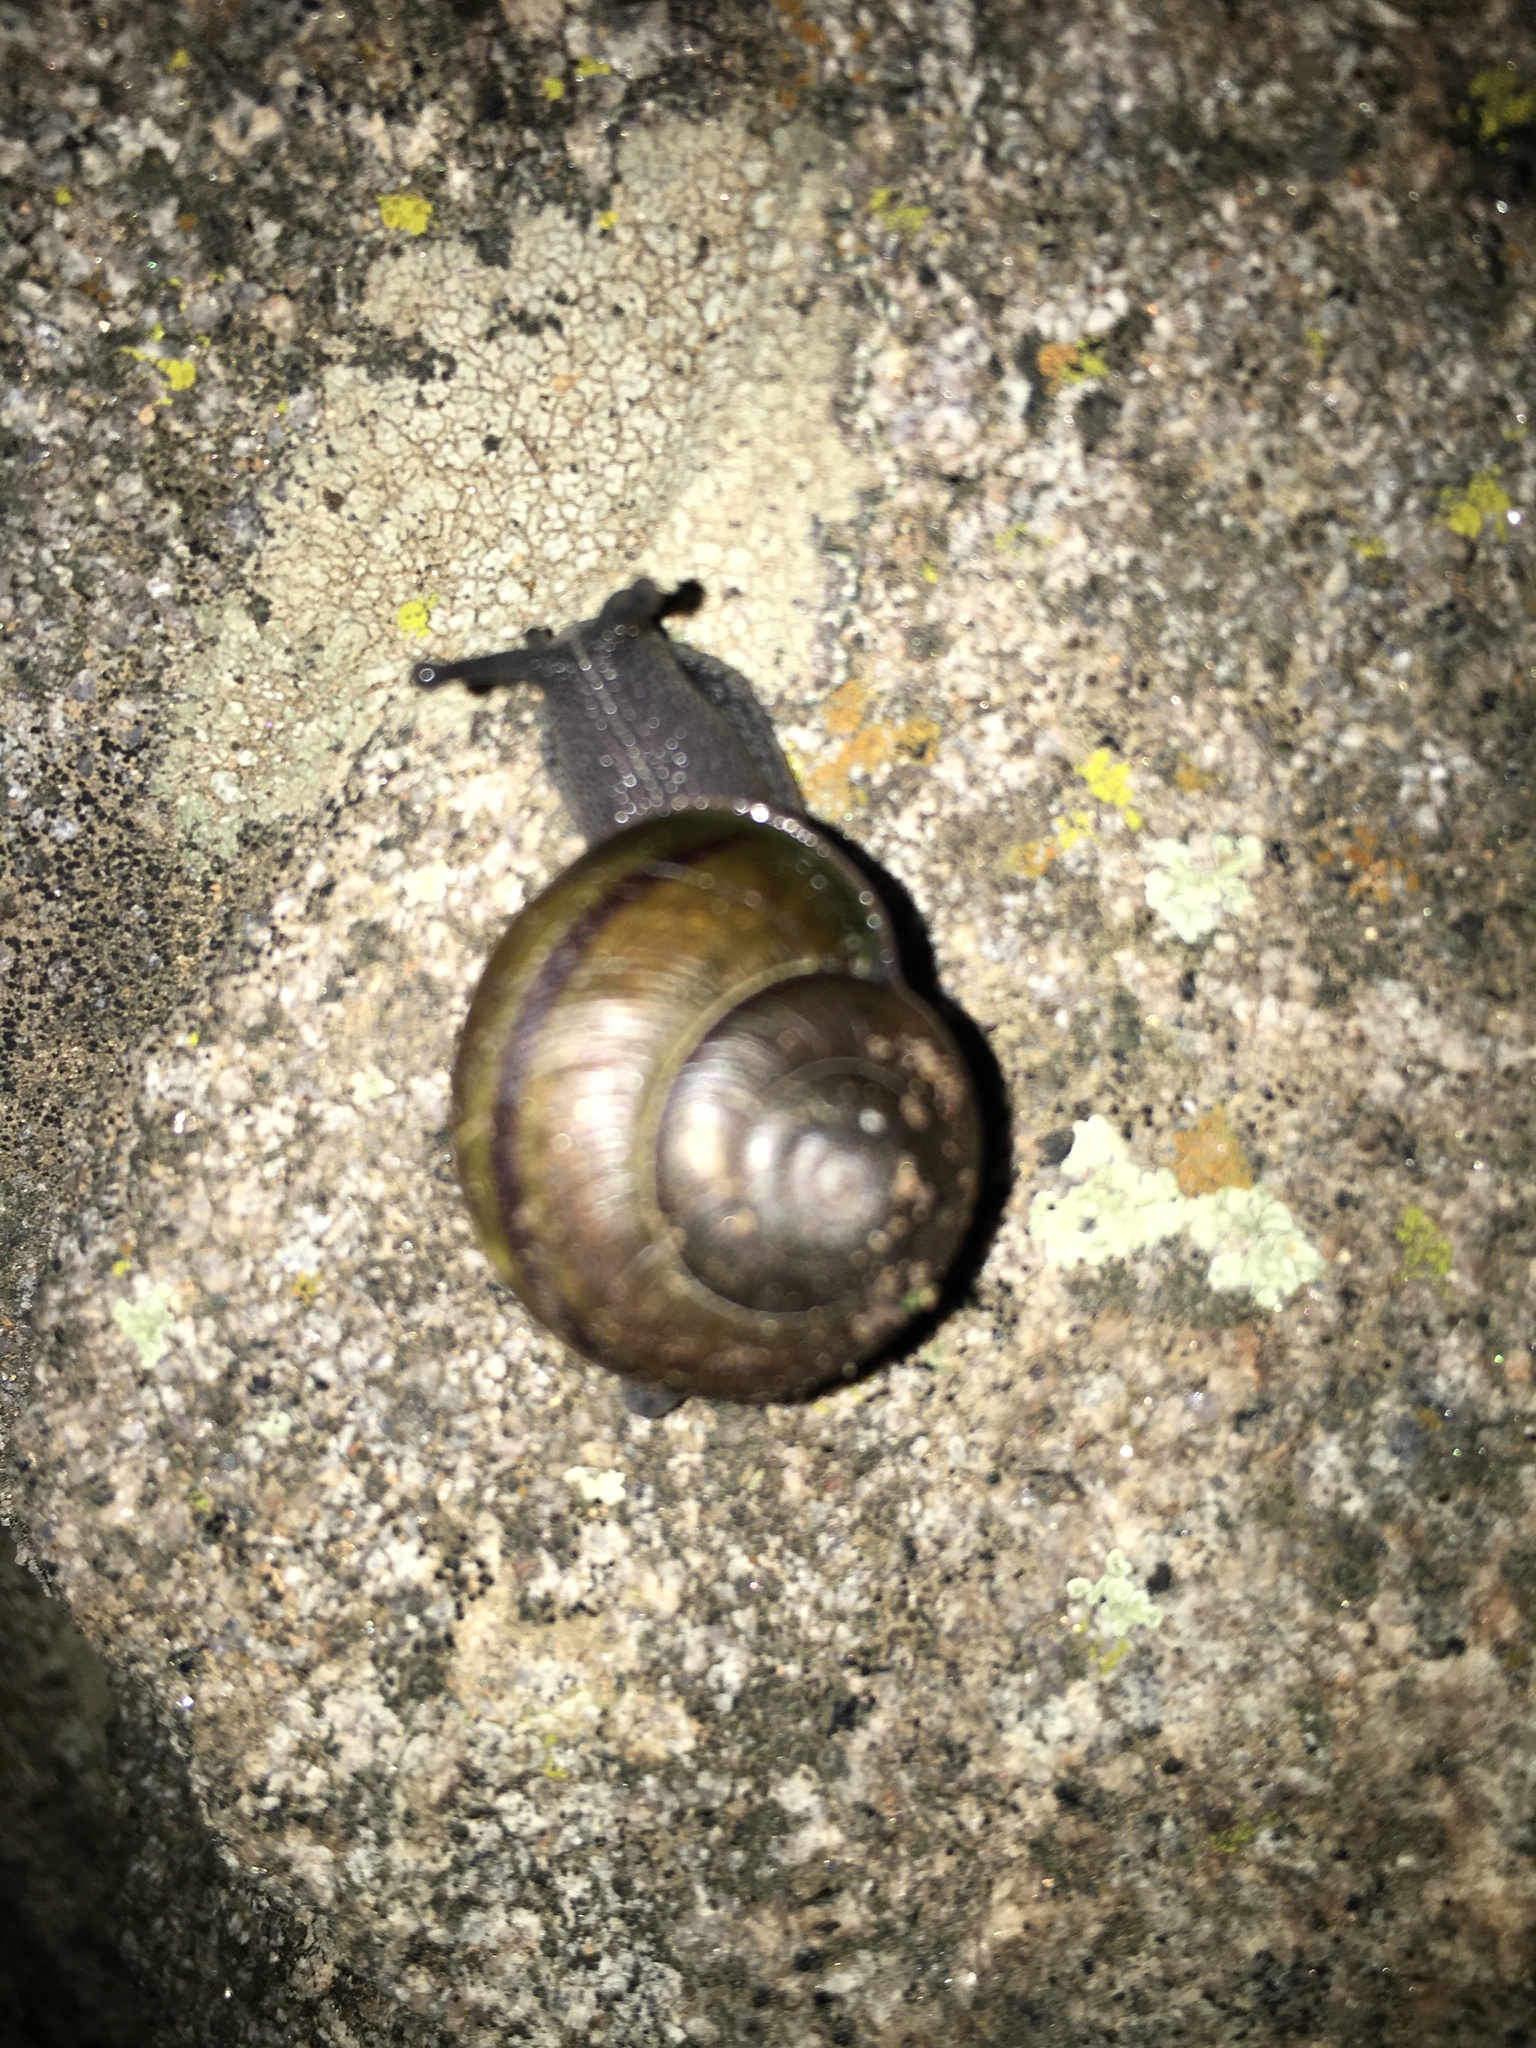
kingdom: Animalia
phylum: Mollusca
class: Gastropoda
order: Stylommatophora
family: Xanthonychidae
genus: Helminthoglypta
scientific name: Helminthoglypta tudiculata
